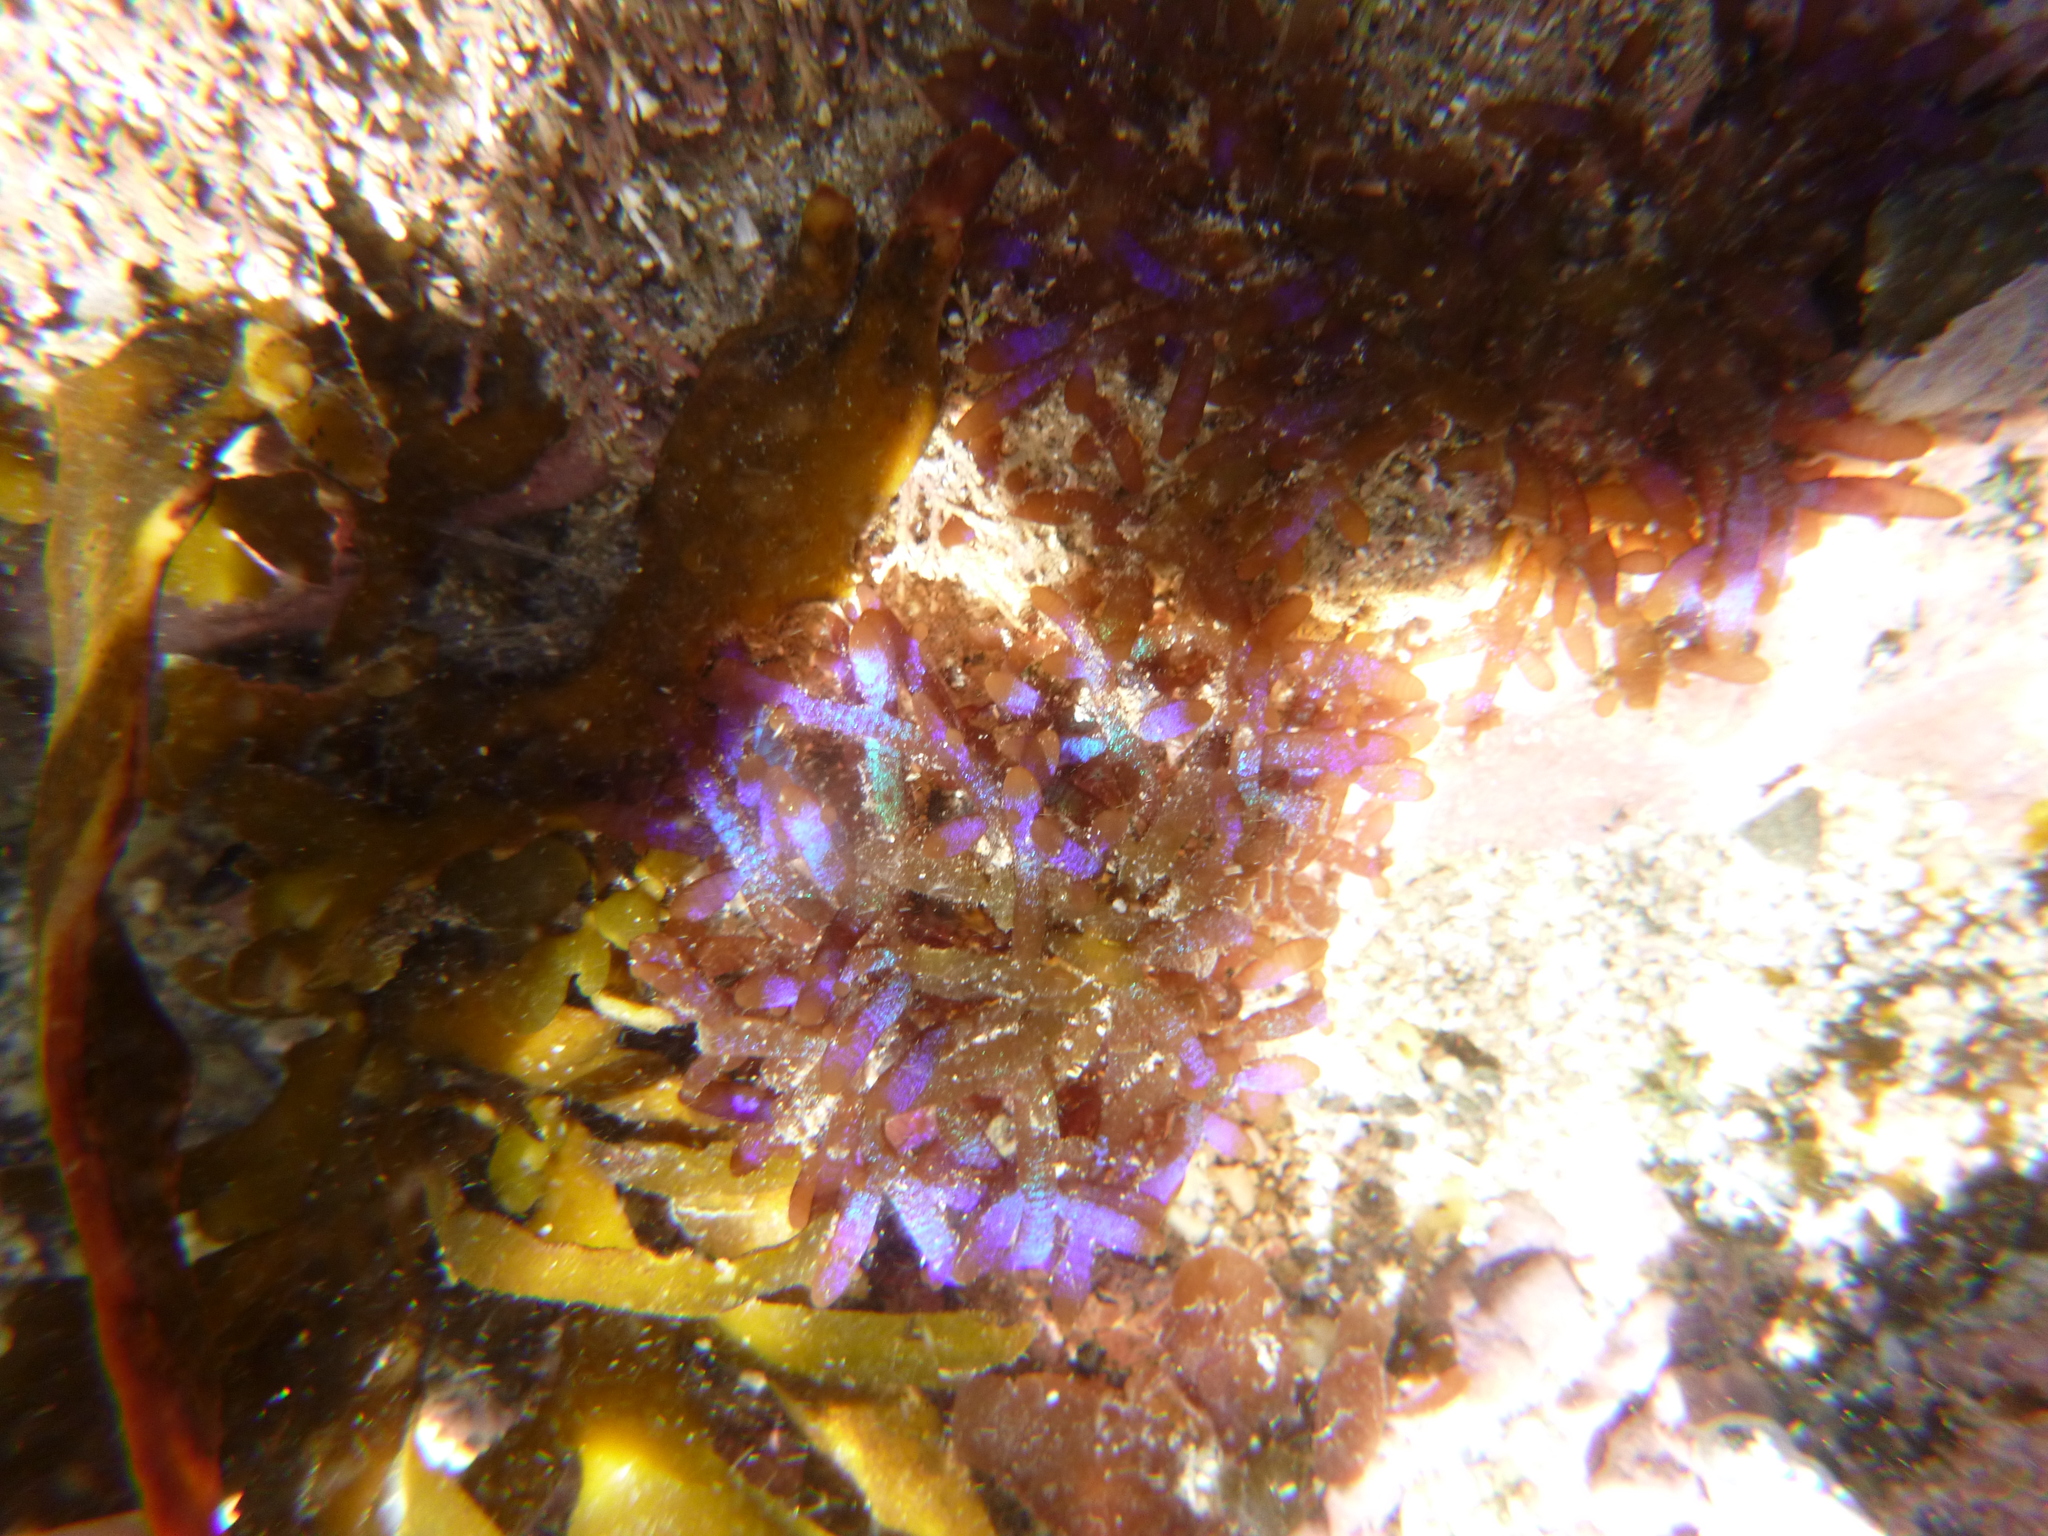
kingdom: Plantae
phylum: Rhodophyta
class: Florideophyceae
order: Rhodymeniales
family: Champiaceae
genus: Champia
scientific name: Champia laingii
